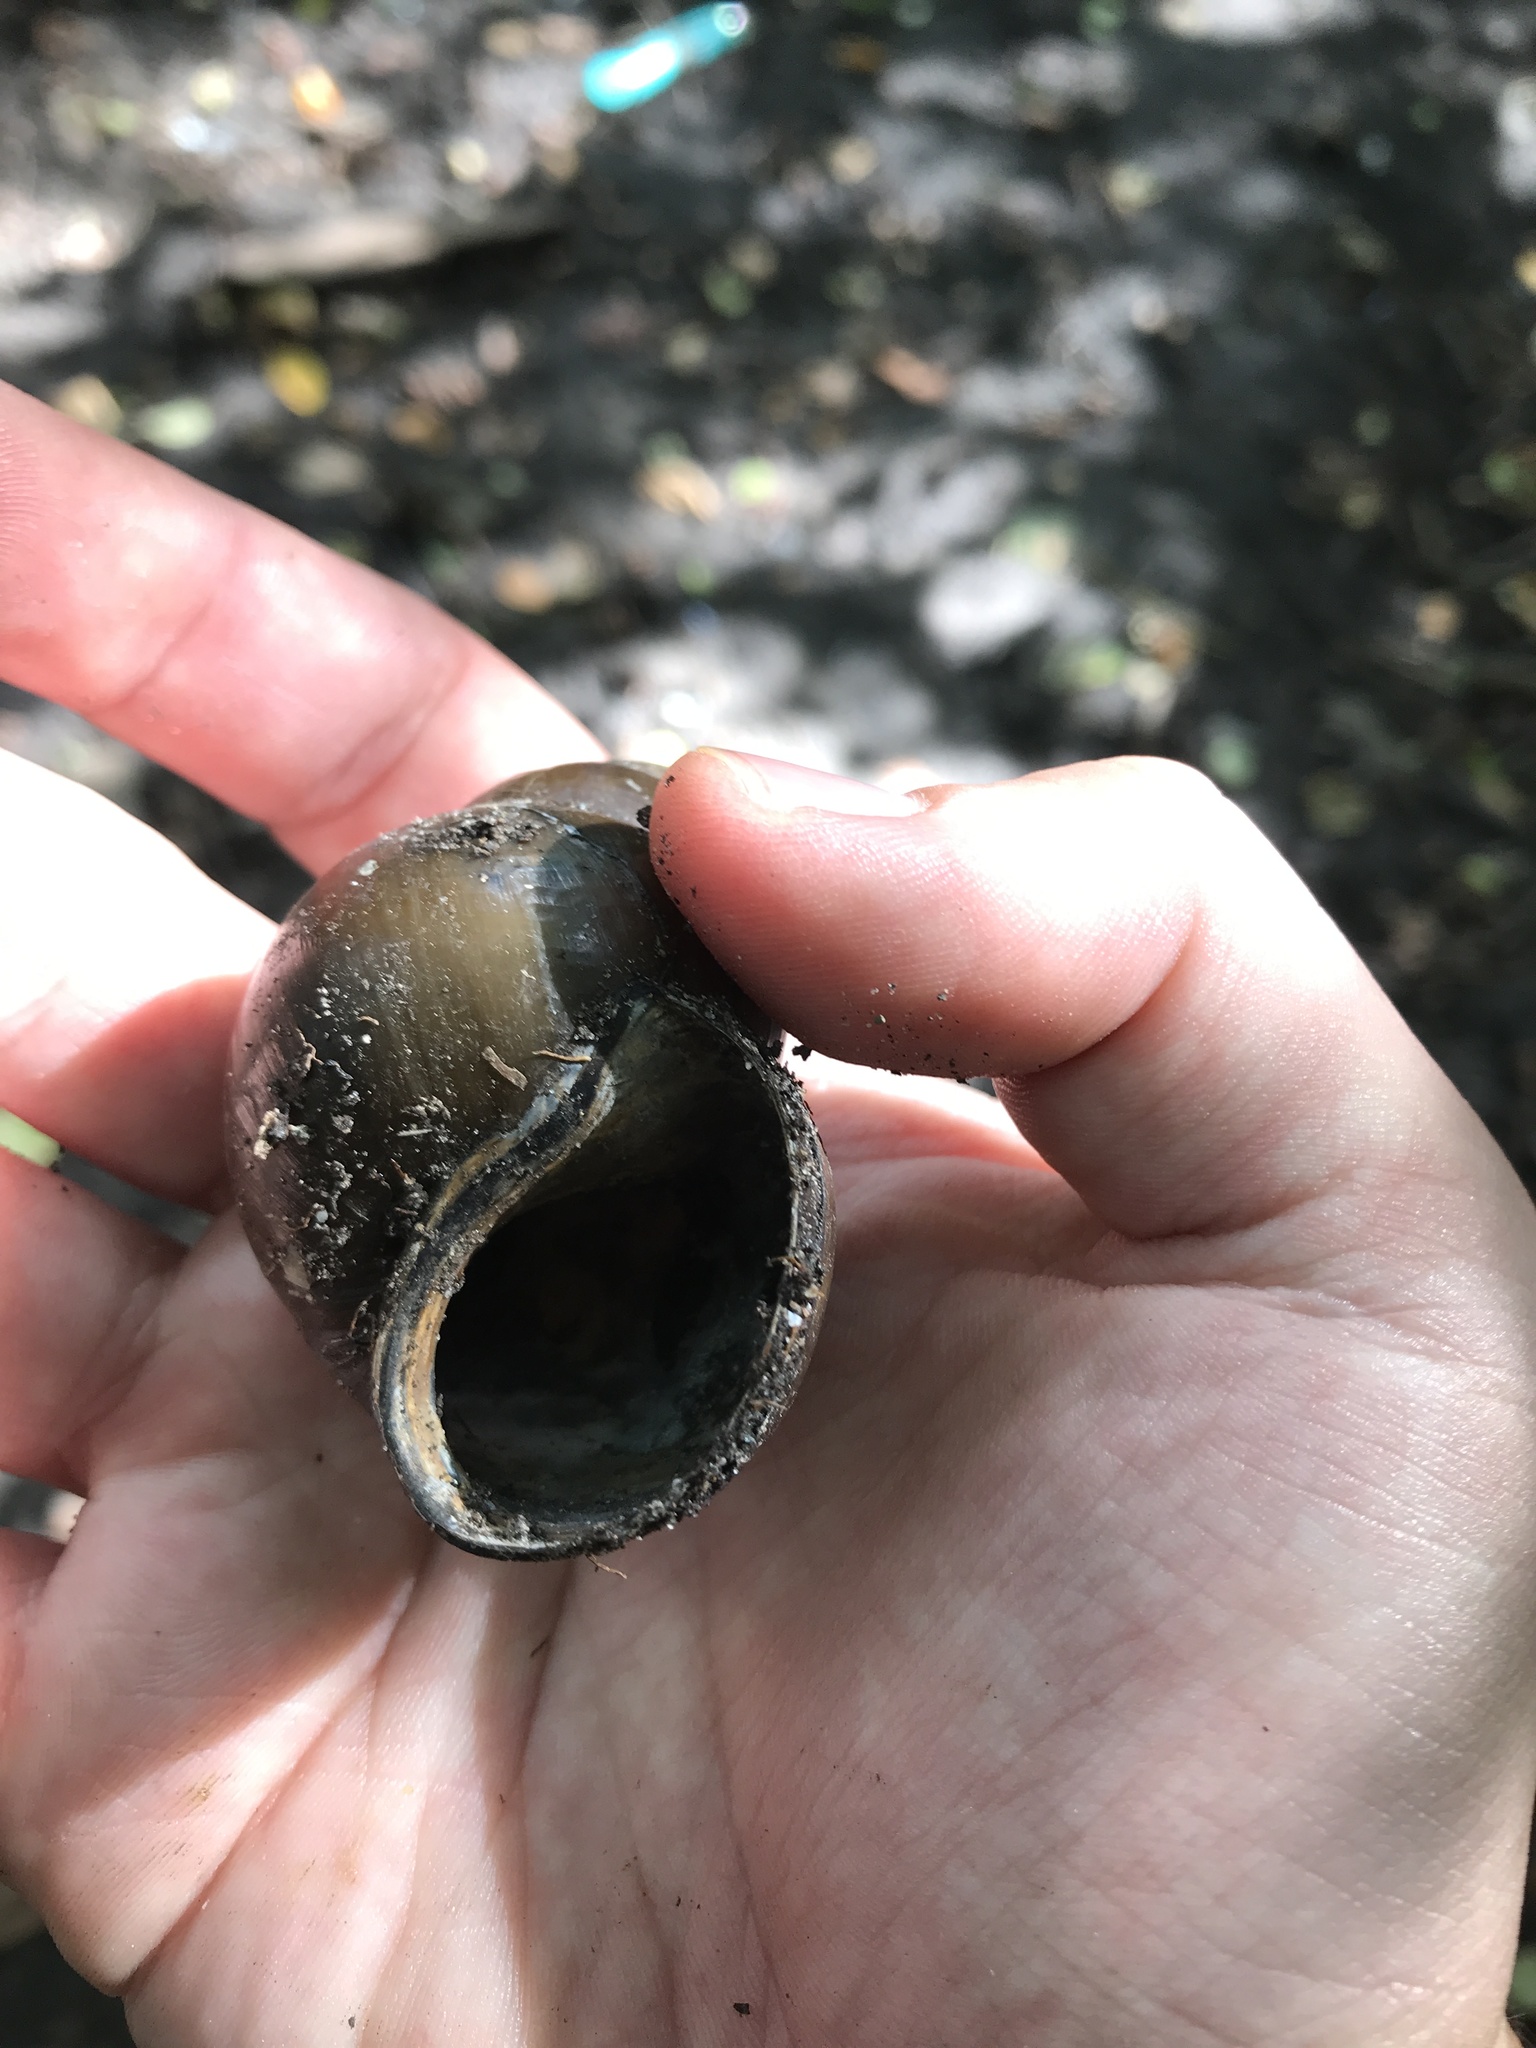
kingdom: Animalia
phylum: Mollusca
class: Gastropoda
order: Architaenioglossa
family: Viviparidae
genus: Cipangopaludina
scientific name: Cipangopaludina chinensis
